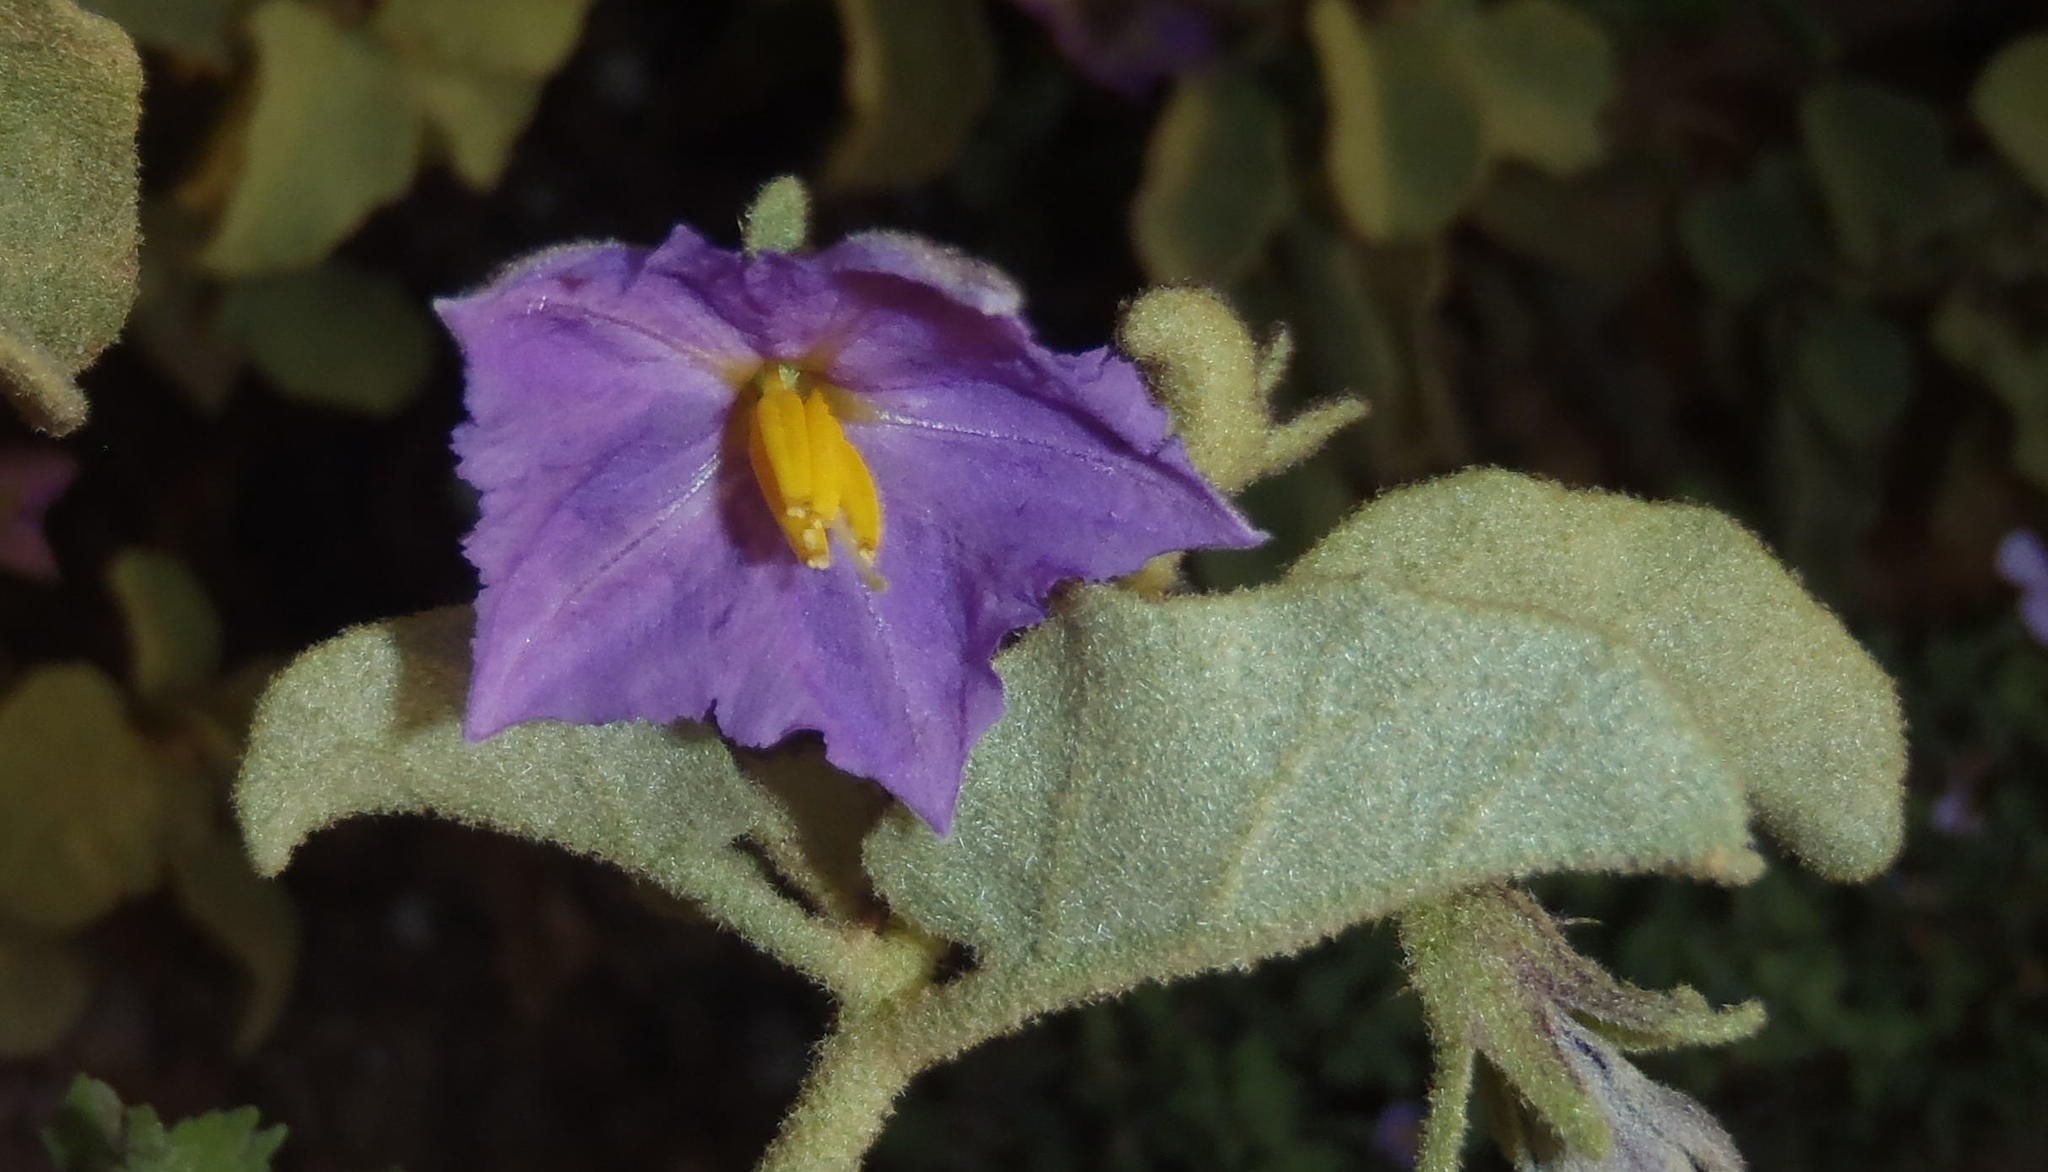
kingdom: Plantae
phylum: Tracheophyta
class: Magnoliopsida
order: Solanales
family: Solanaceae
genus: Solanum
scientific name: Solanum tomentosum
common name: Wild aubergine
